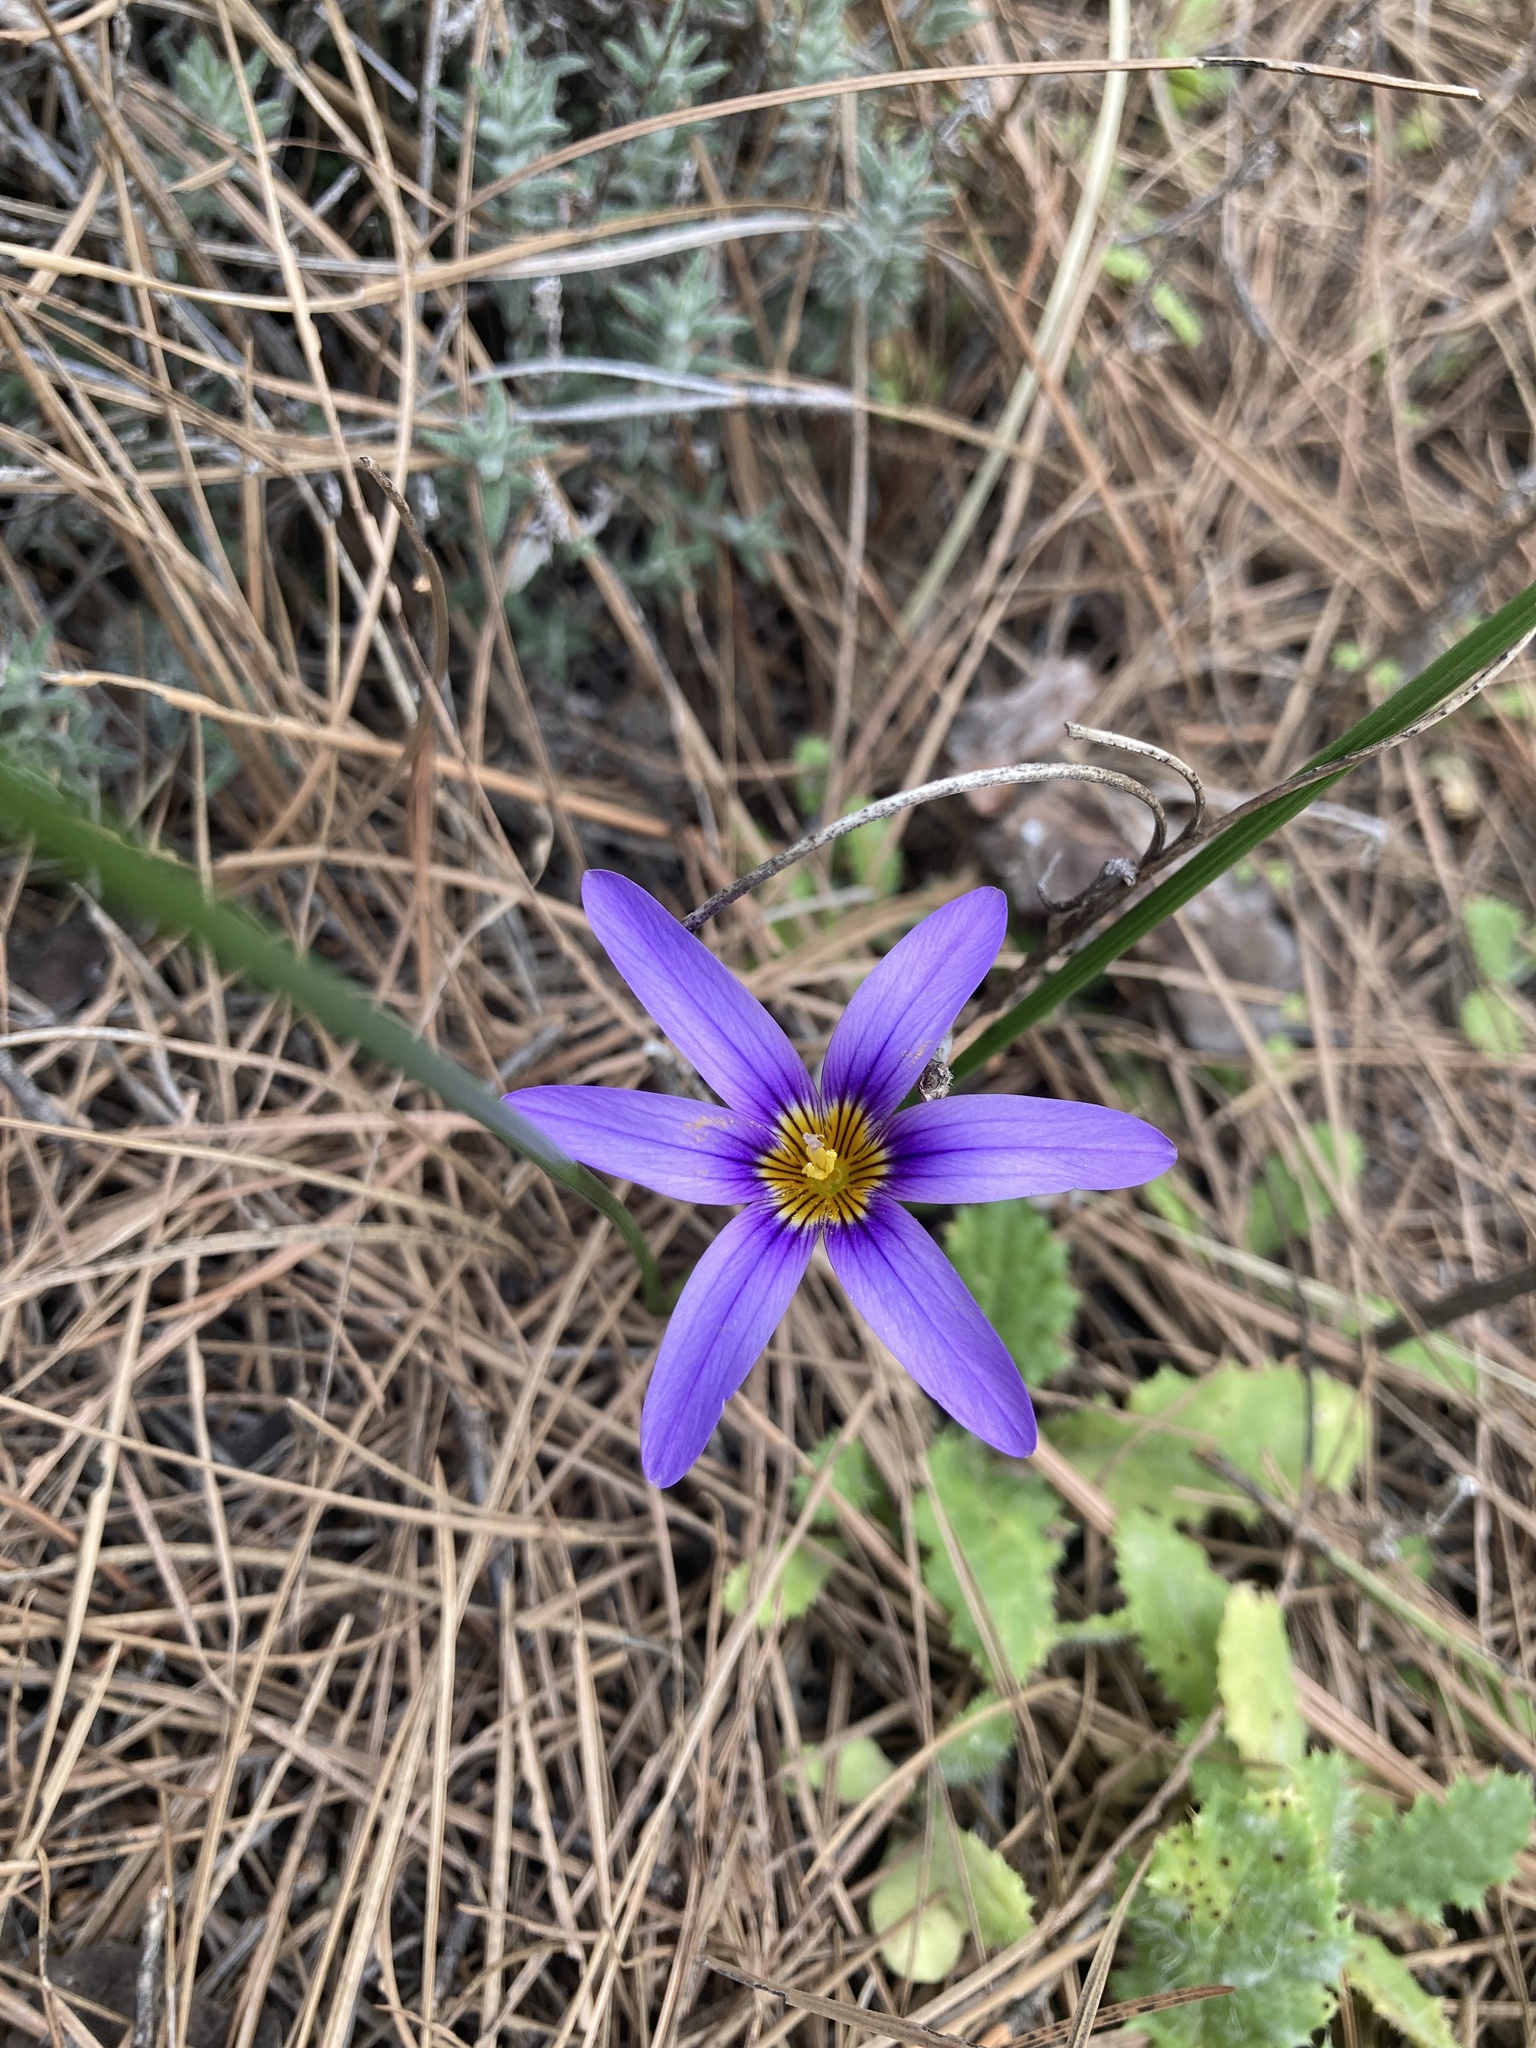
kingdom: Plantae
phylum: Tracheophyta
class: Liliopsida
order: Asparagales
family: Iridaceae
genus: Romulea
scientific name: Romulea columnae
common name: Sand-crocus
